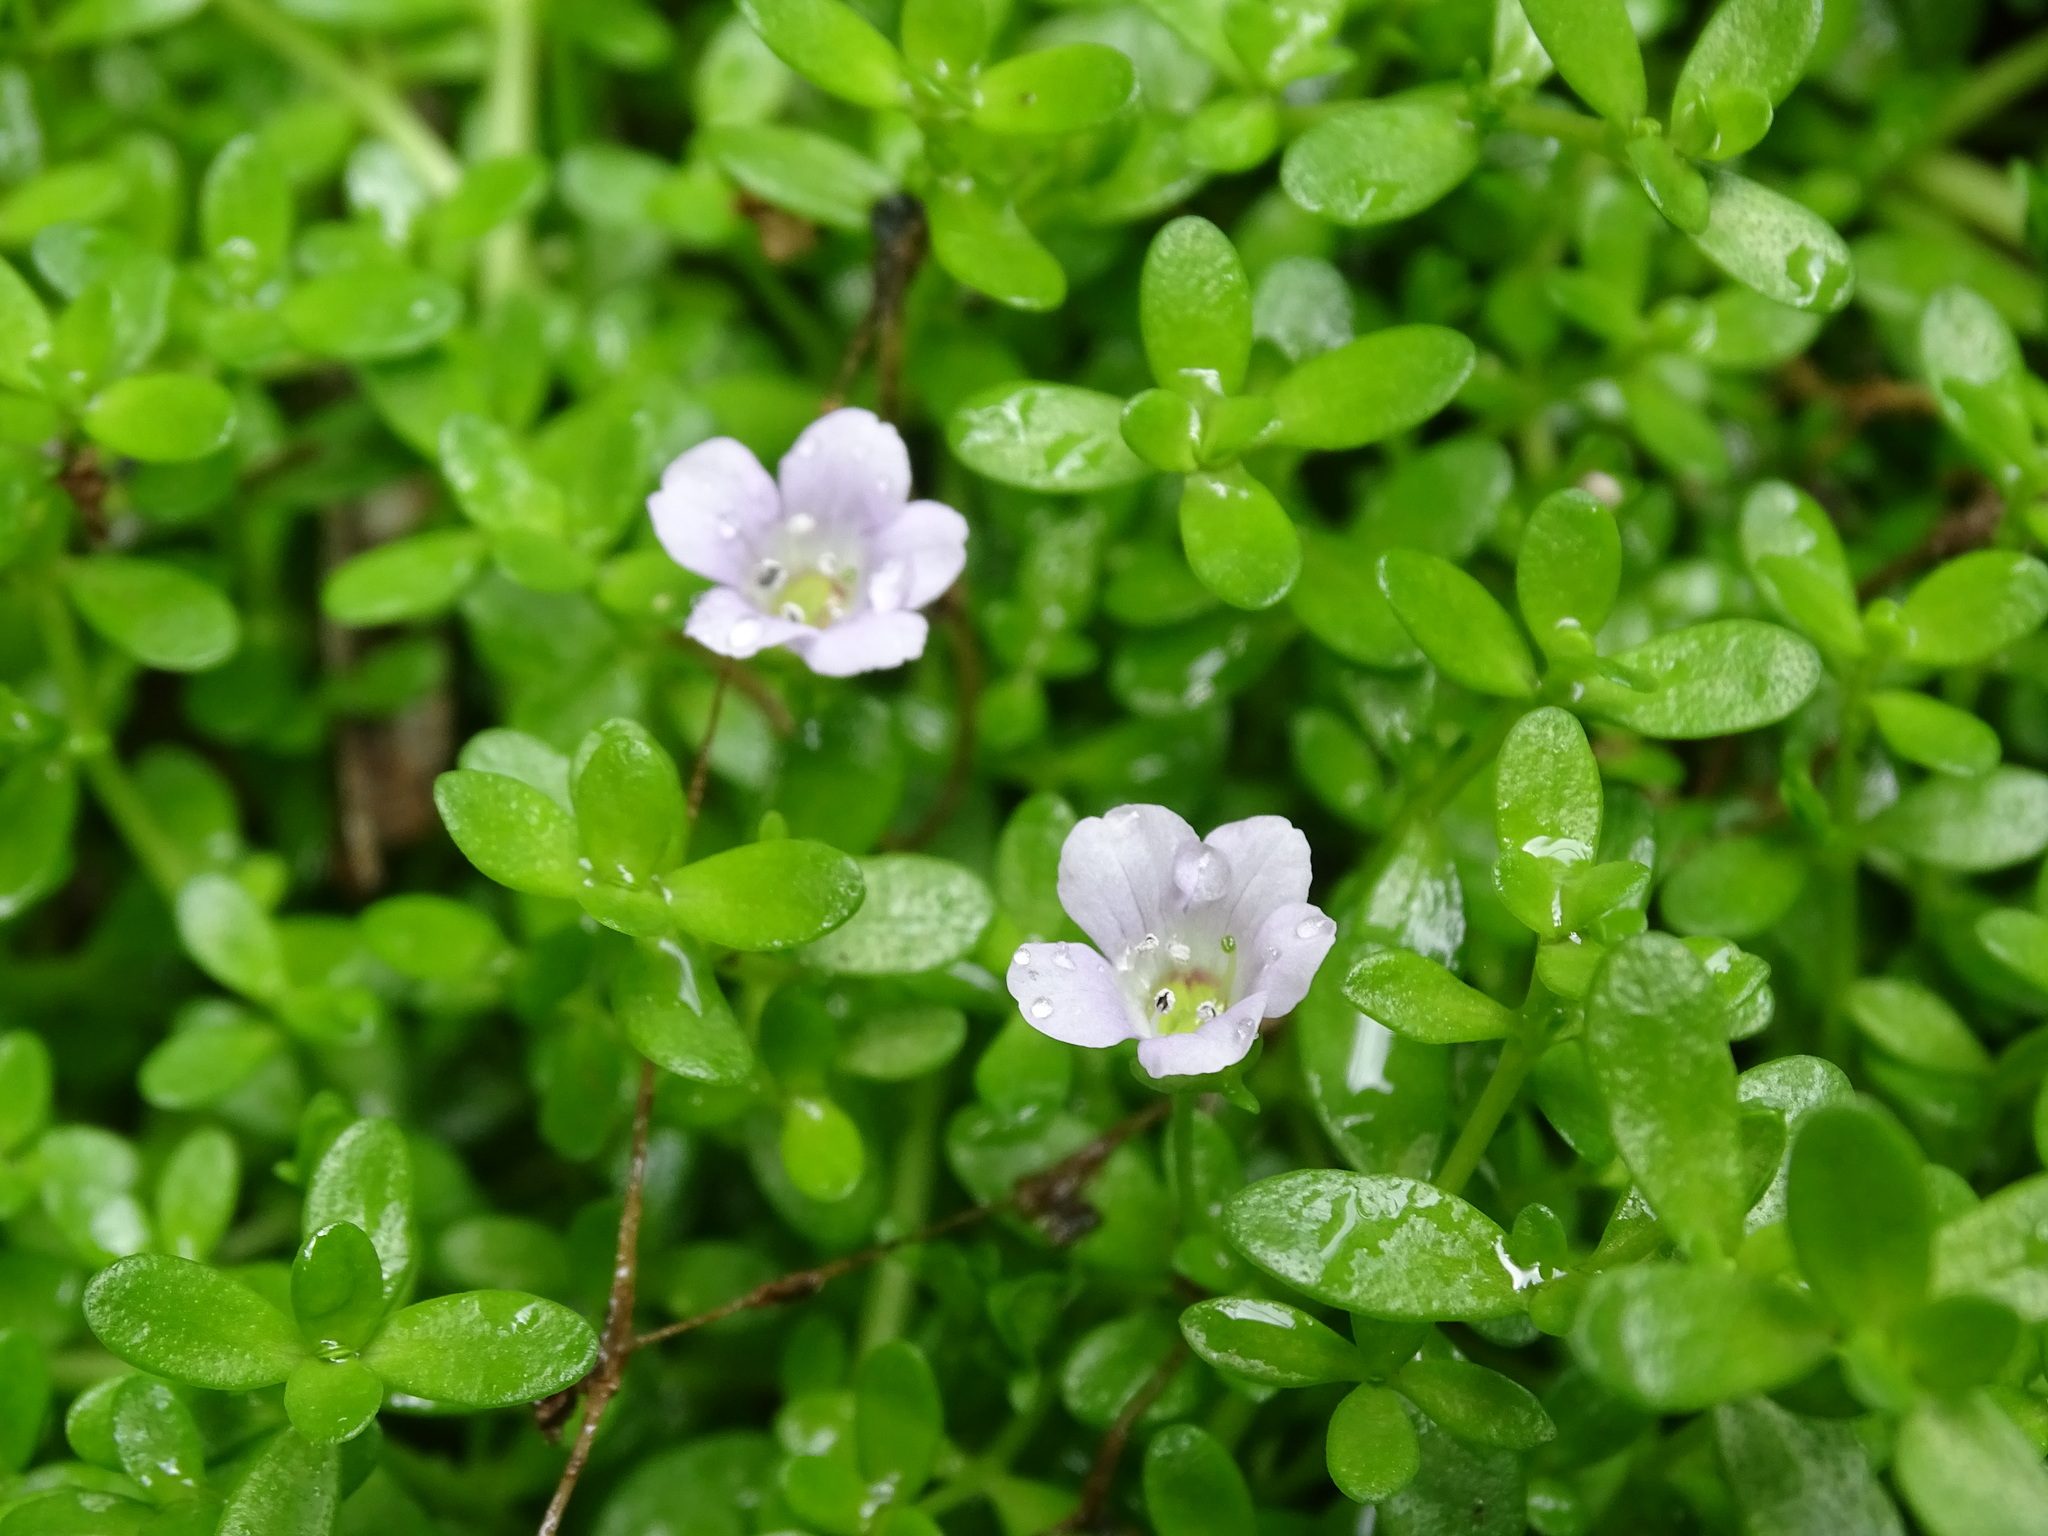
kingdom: Plantae
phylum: Tracheophyta
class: Magnoliopsida
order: Lamiales
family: Plantaginaceae
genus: Bacopa
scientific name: Bacopa monnieri
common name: Indian-pennywort
